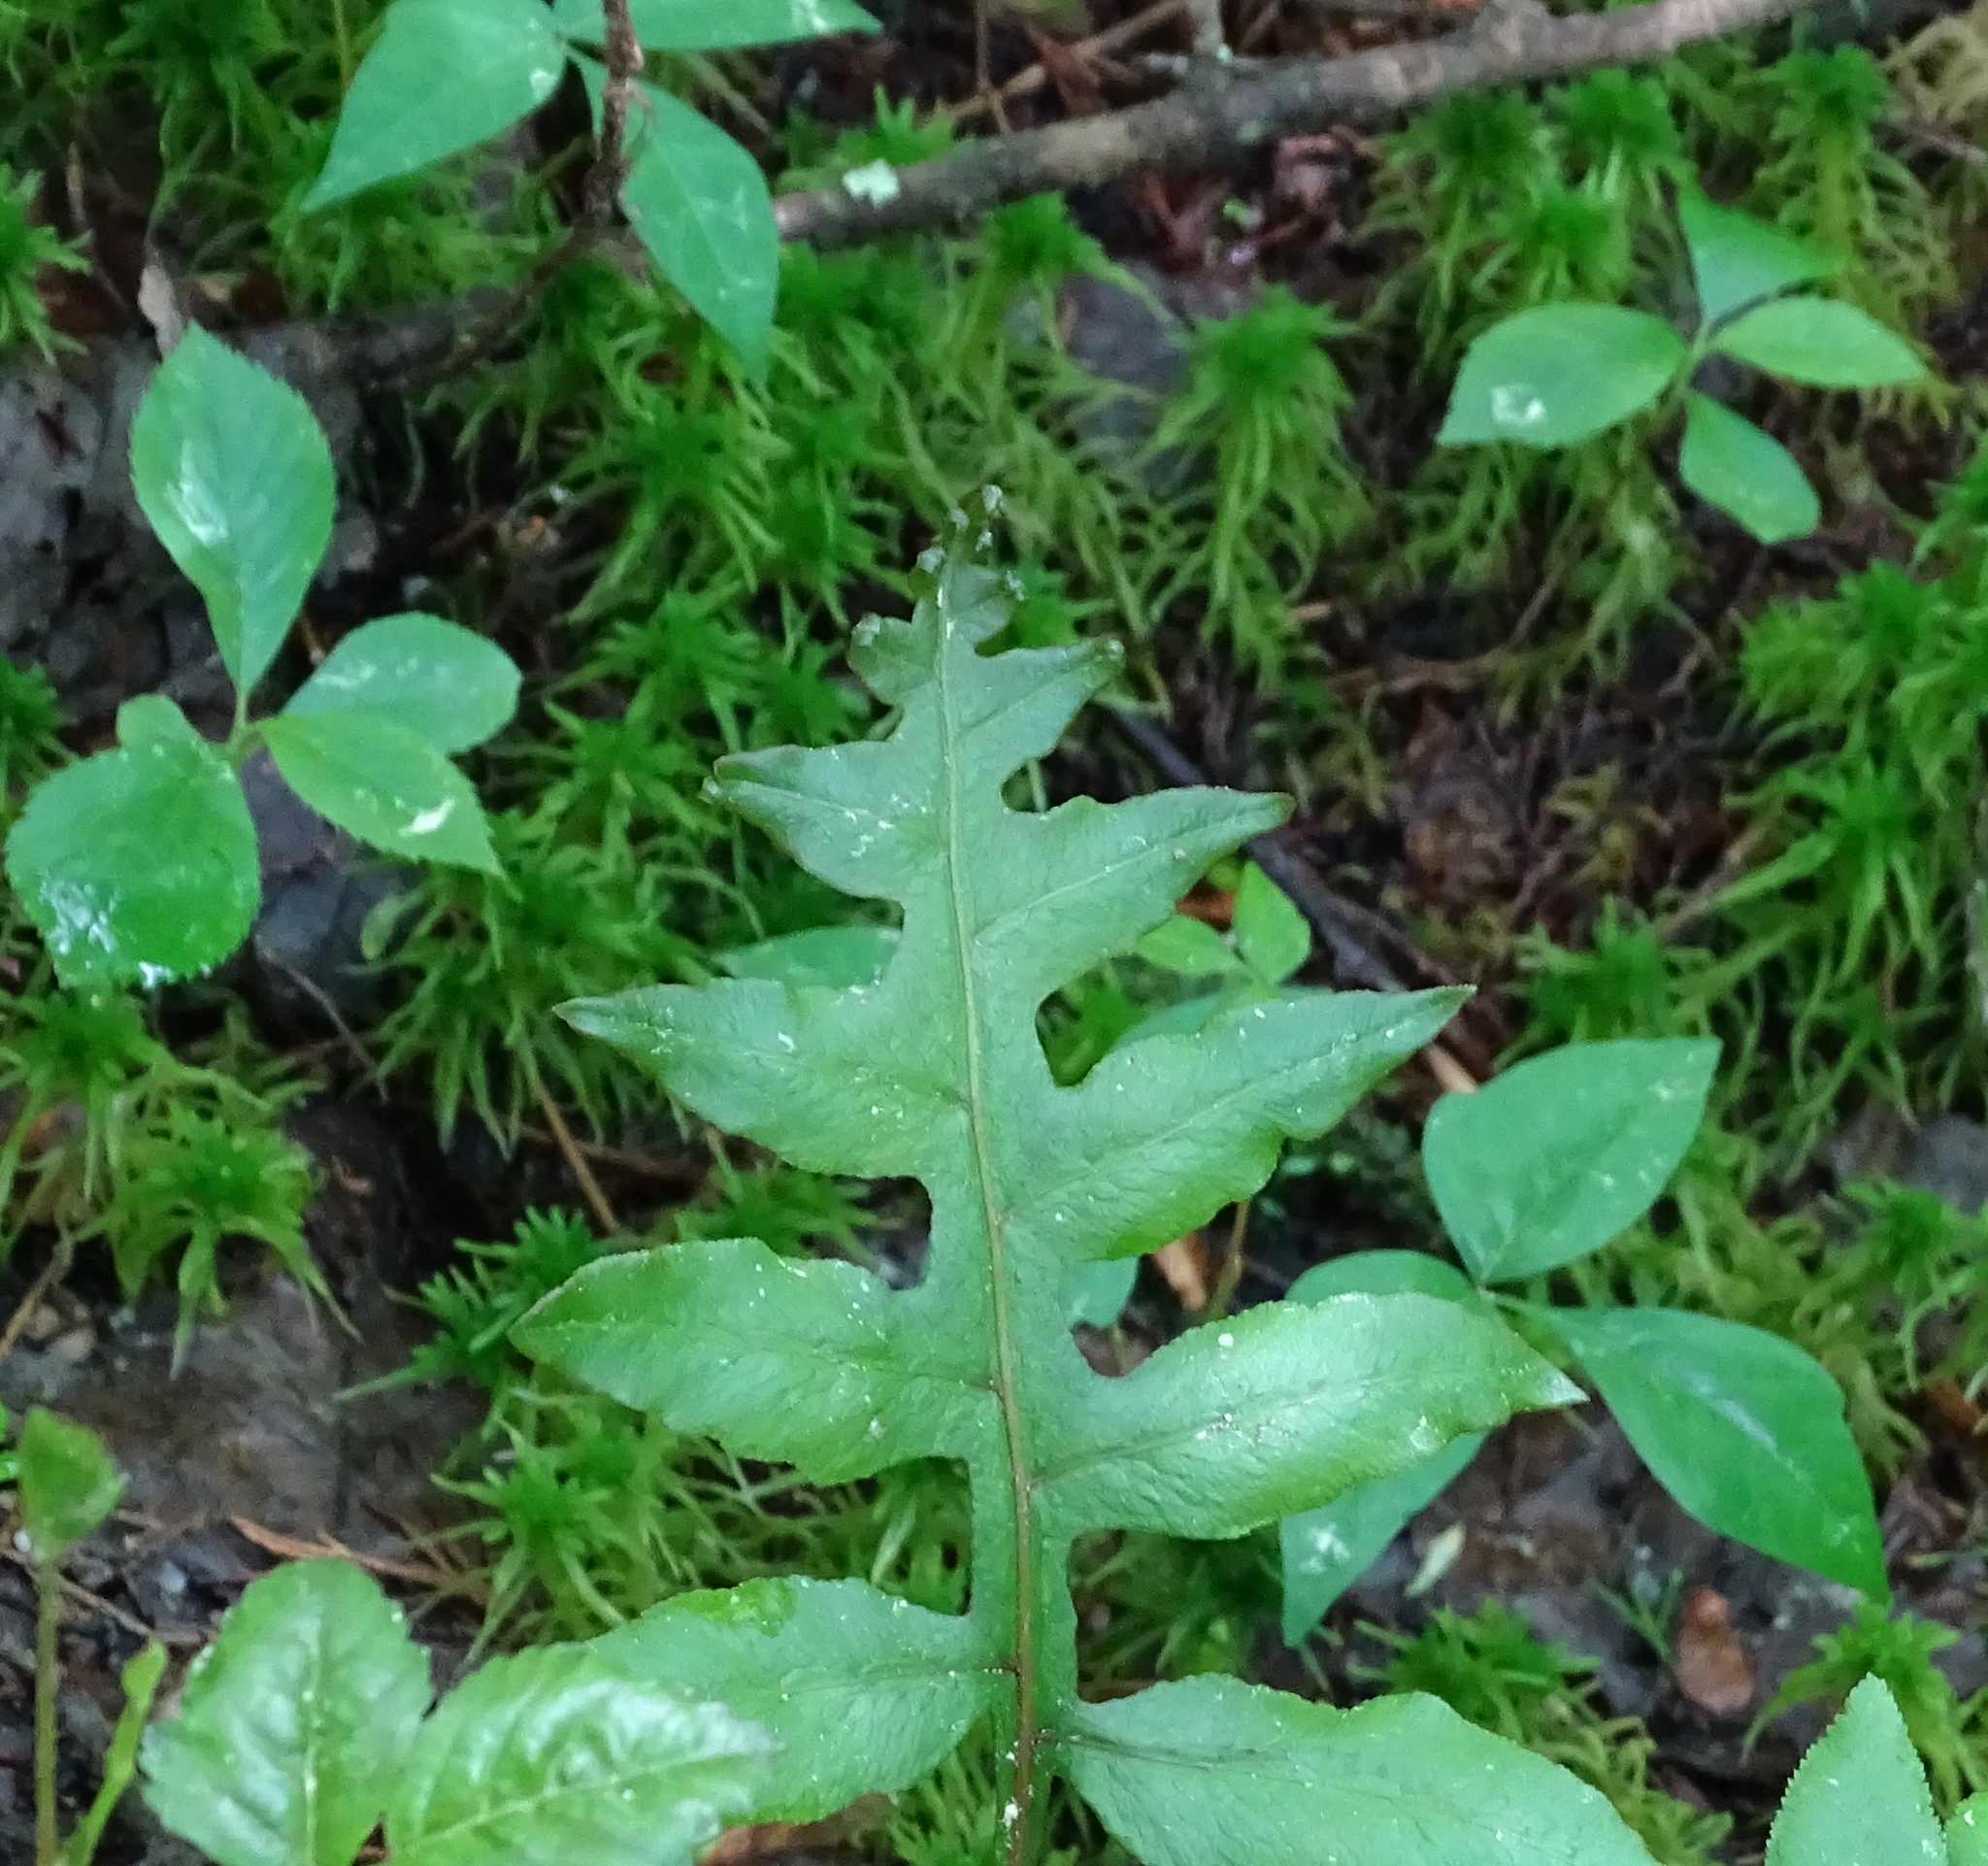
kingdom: Plantae
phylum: Tracheophyta
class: Polypodiopsida
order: Polypodiales
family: Blechnaceae
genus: Lorinseria
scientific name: Lorinseria areolata
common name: Dwarf chain fern
